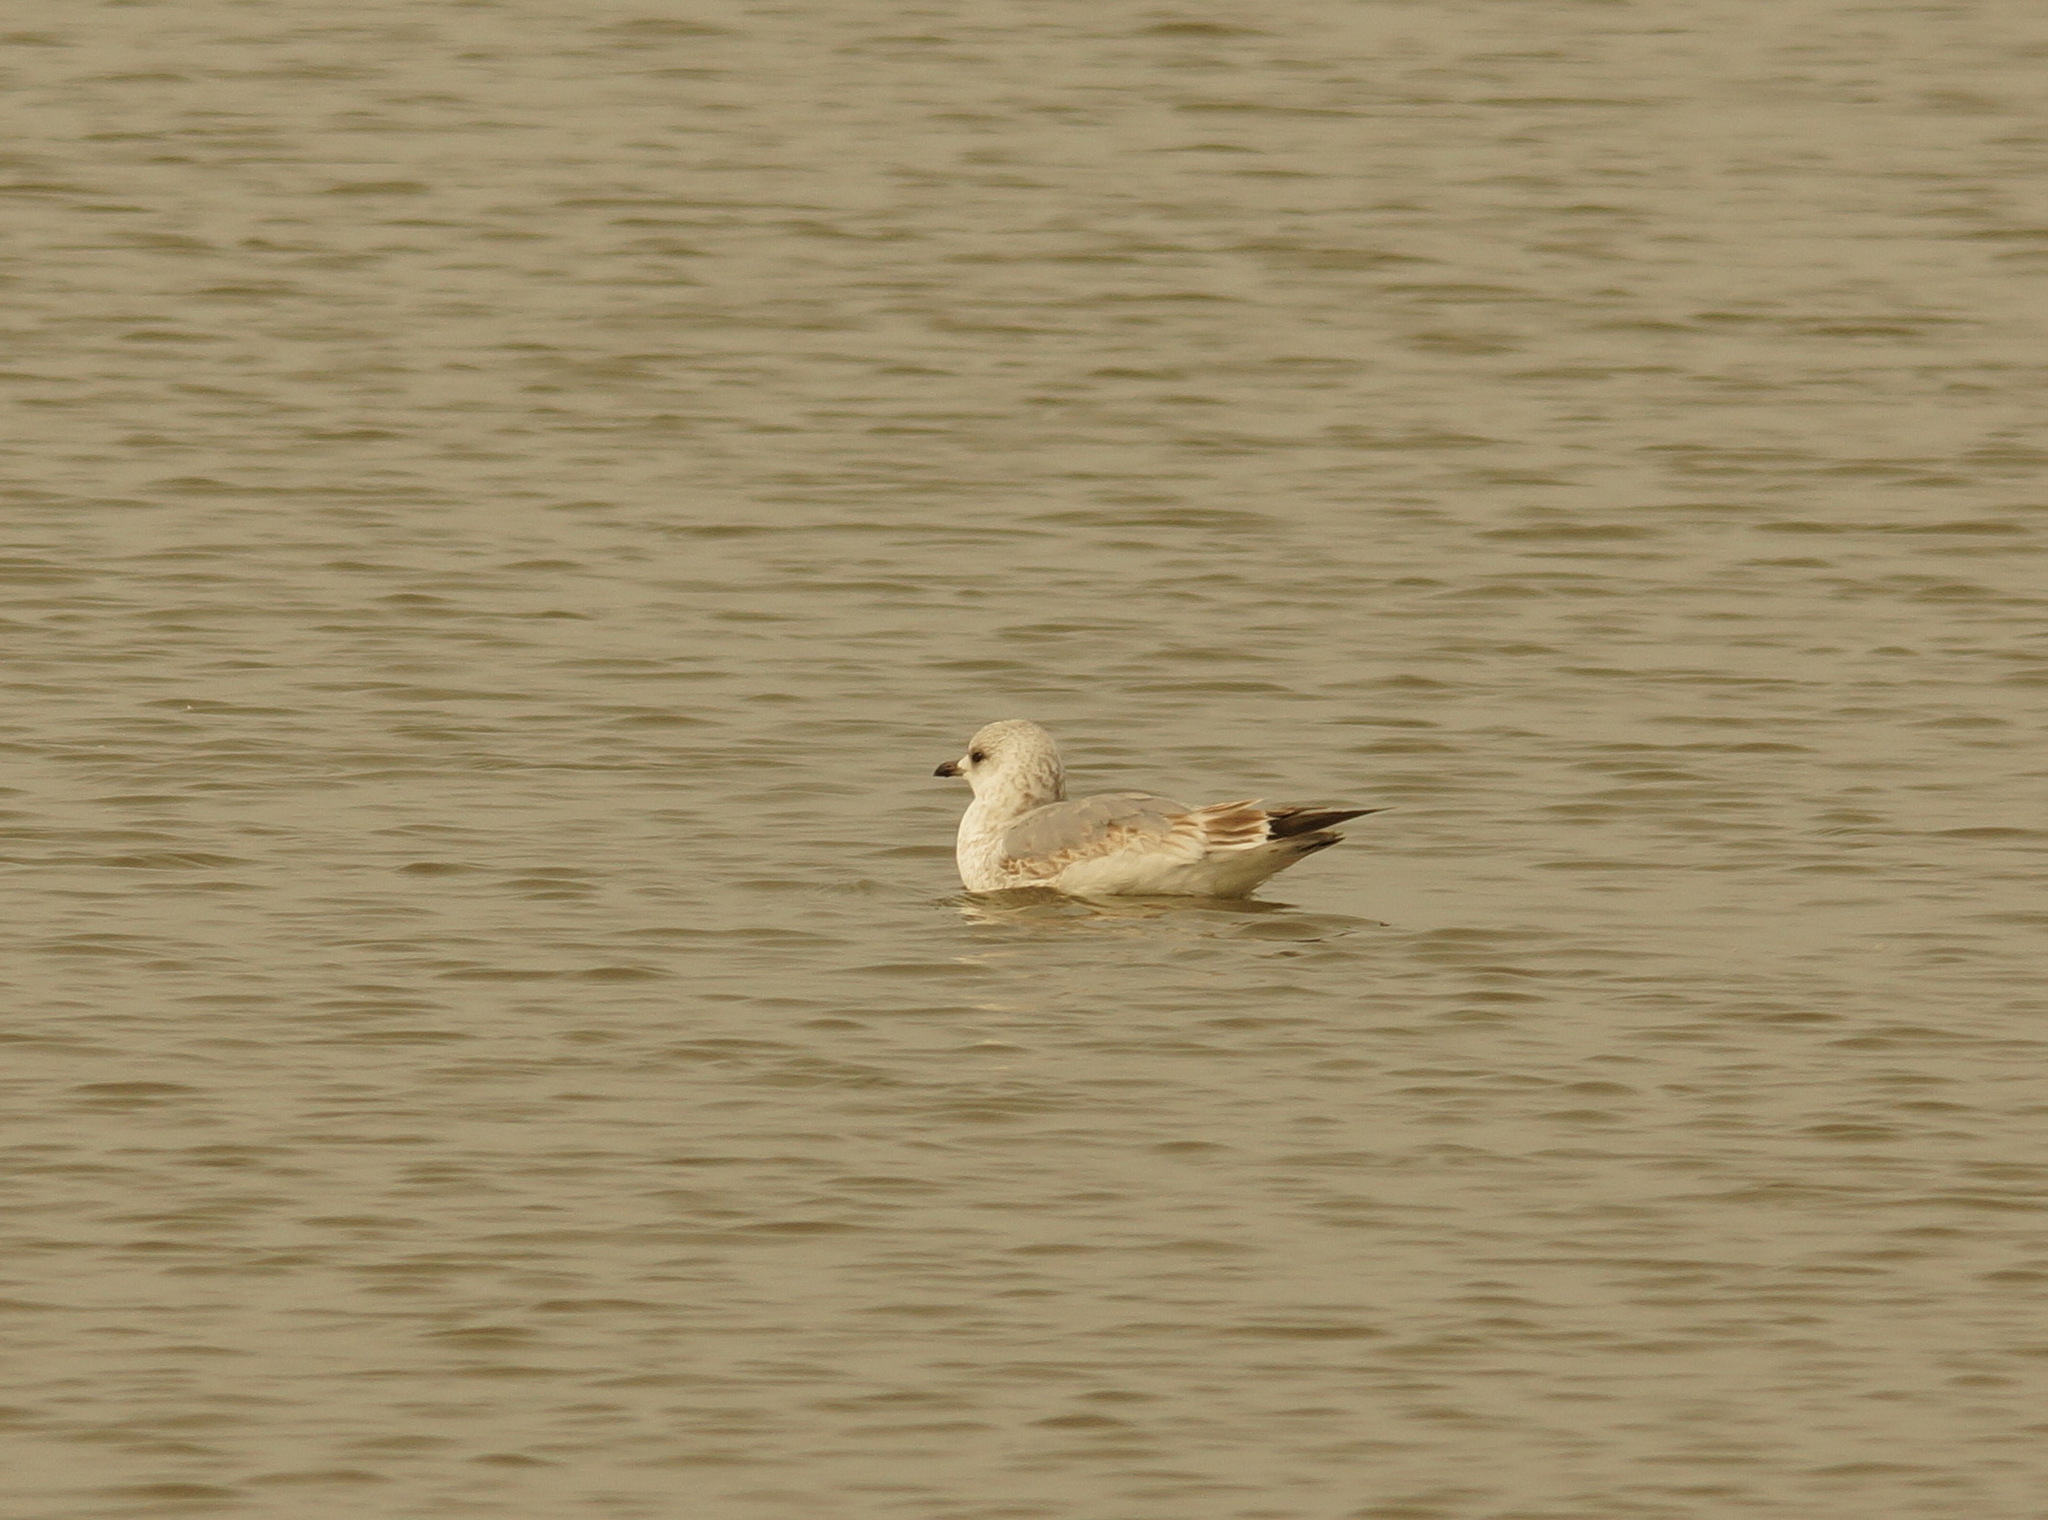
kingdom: Animalia
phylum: Chordata
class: Aves
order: Charadriiformes
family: Laridae
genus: Larus
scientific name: Larus canus
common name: Mew gull
